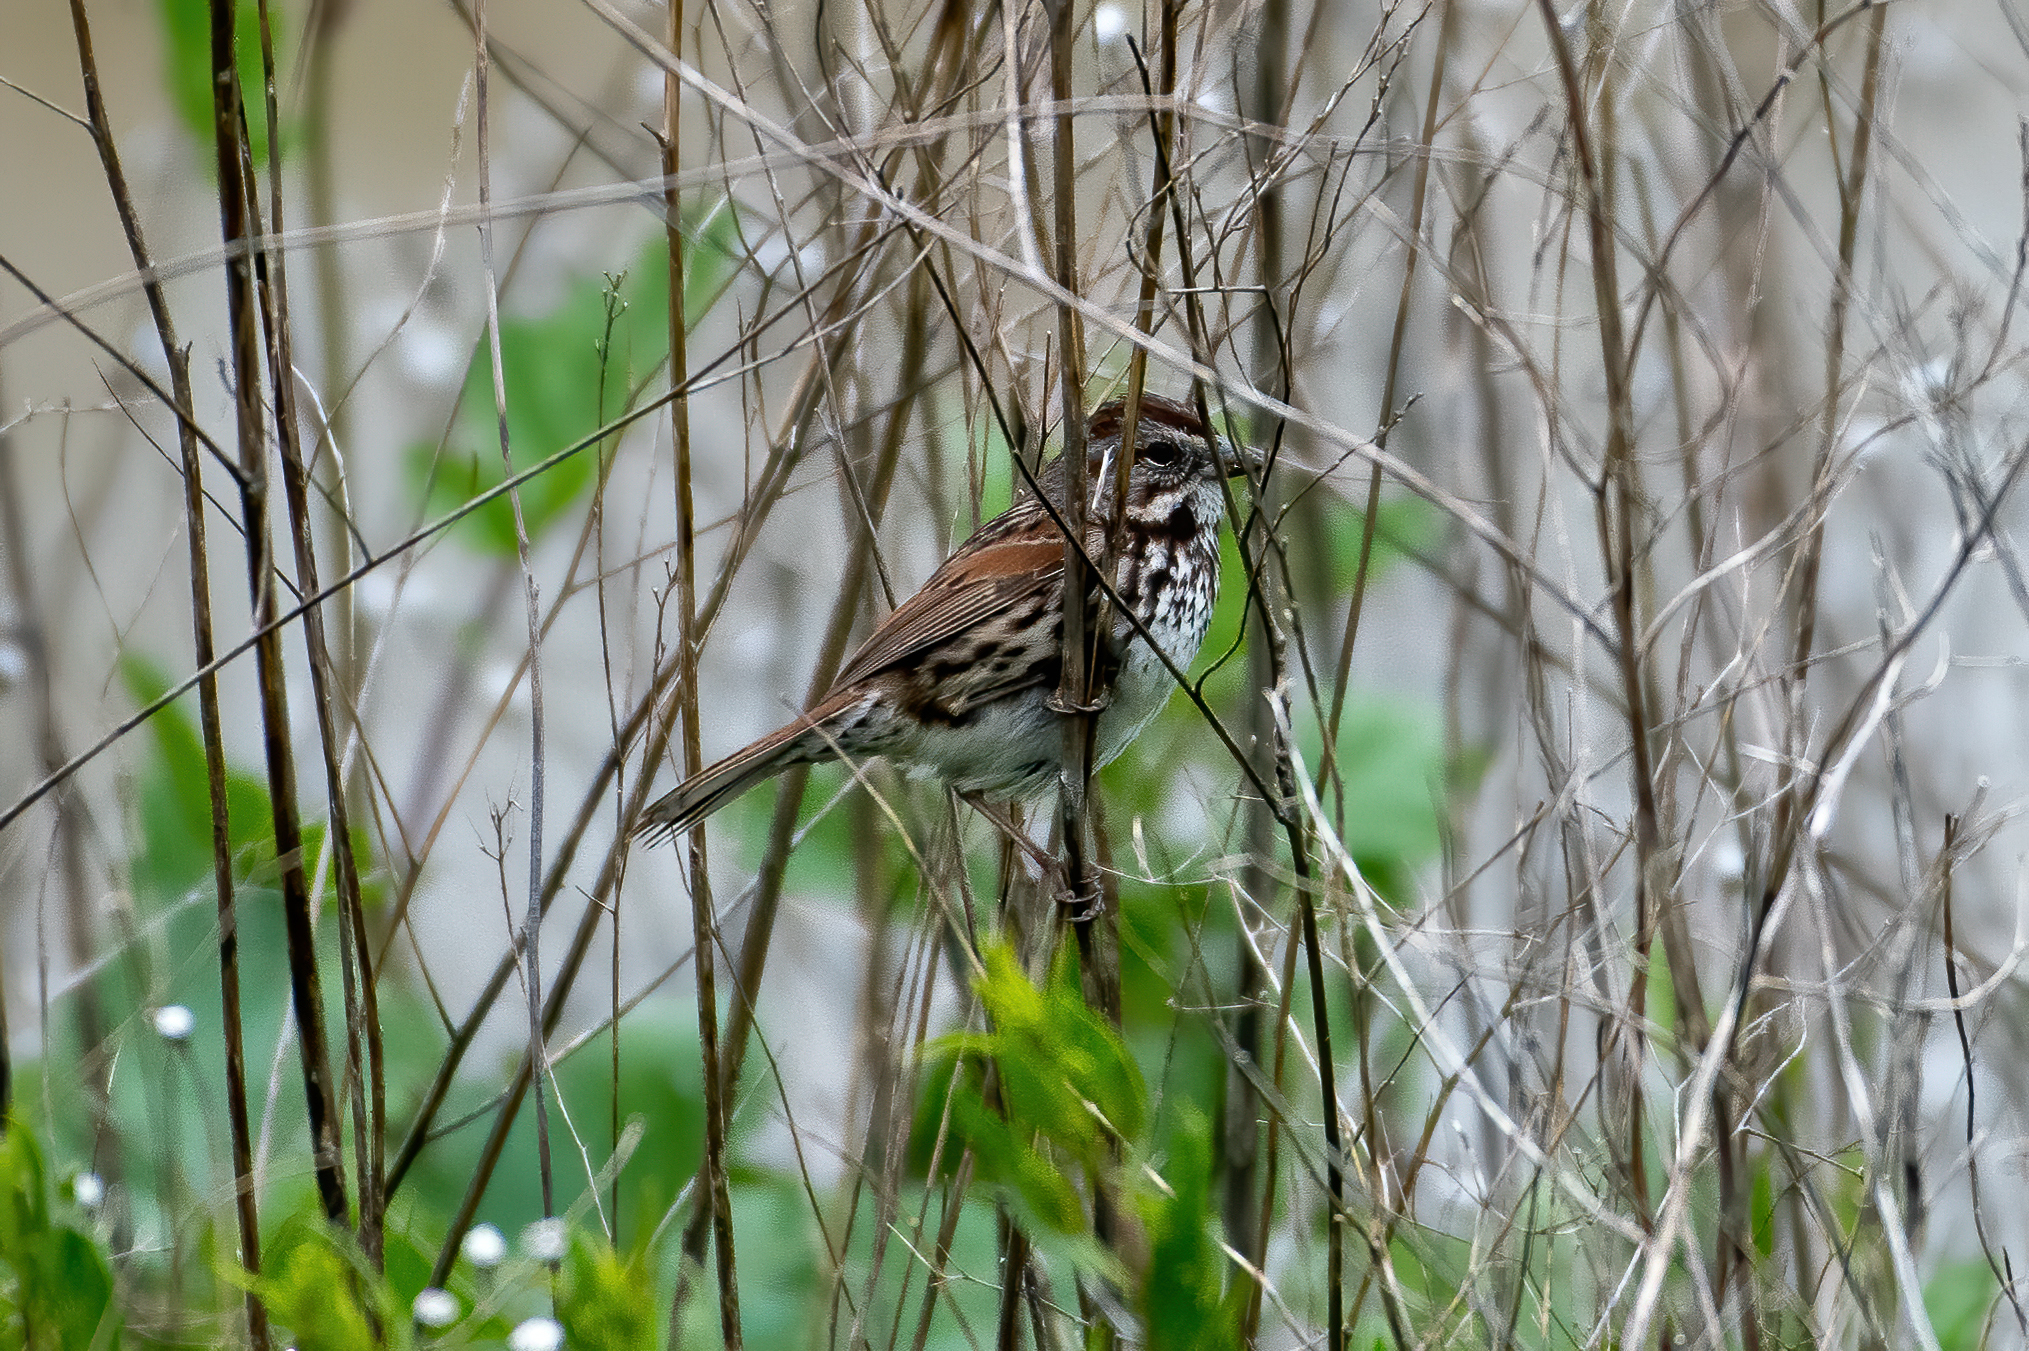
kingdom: Animalia
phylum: Chordata
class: Aves
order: Passeriformes
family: Passerellidae
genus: Melospiza
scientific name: Melospiza melodia
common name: Song sparrow
